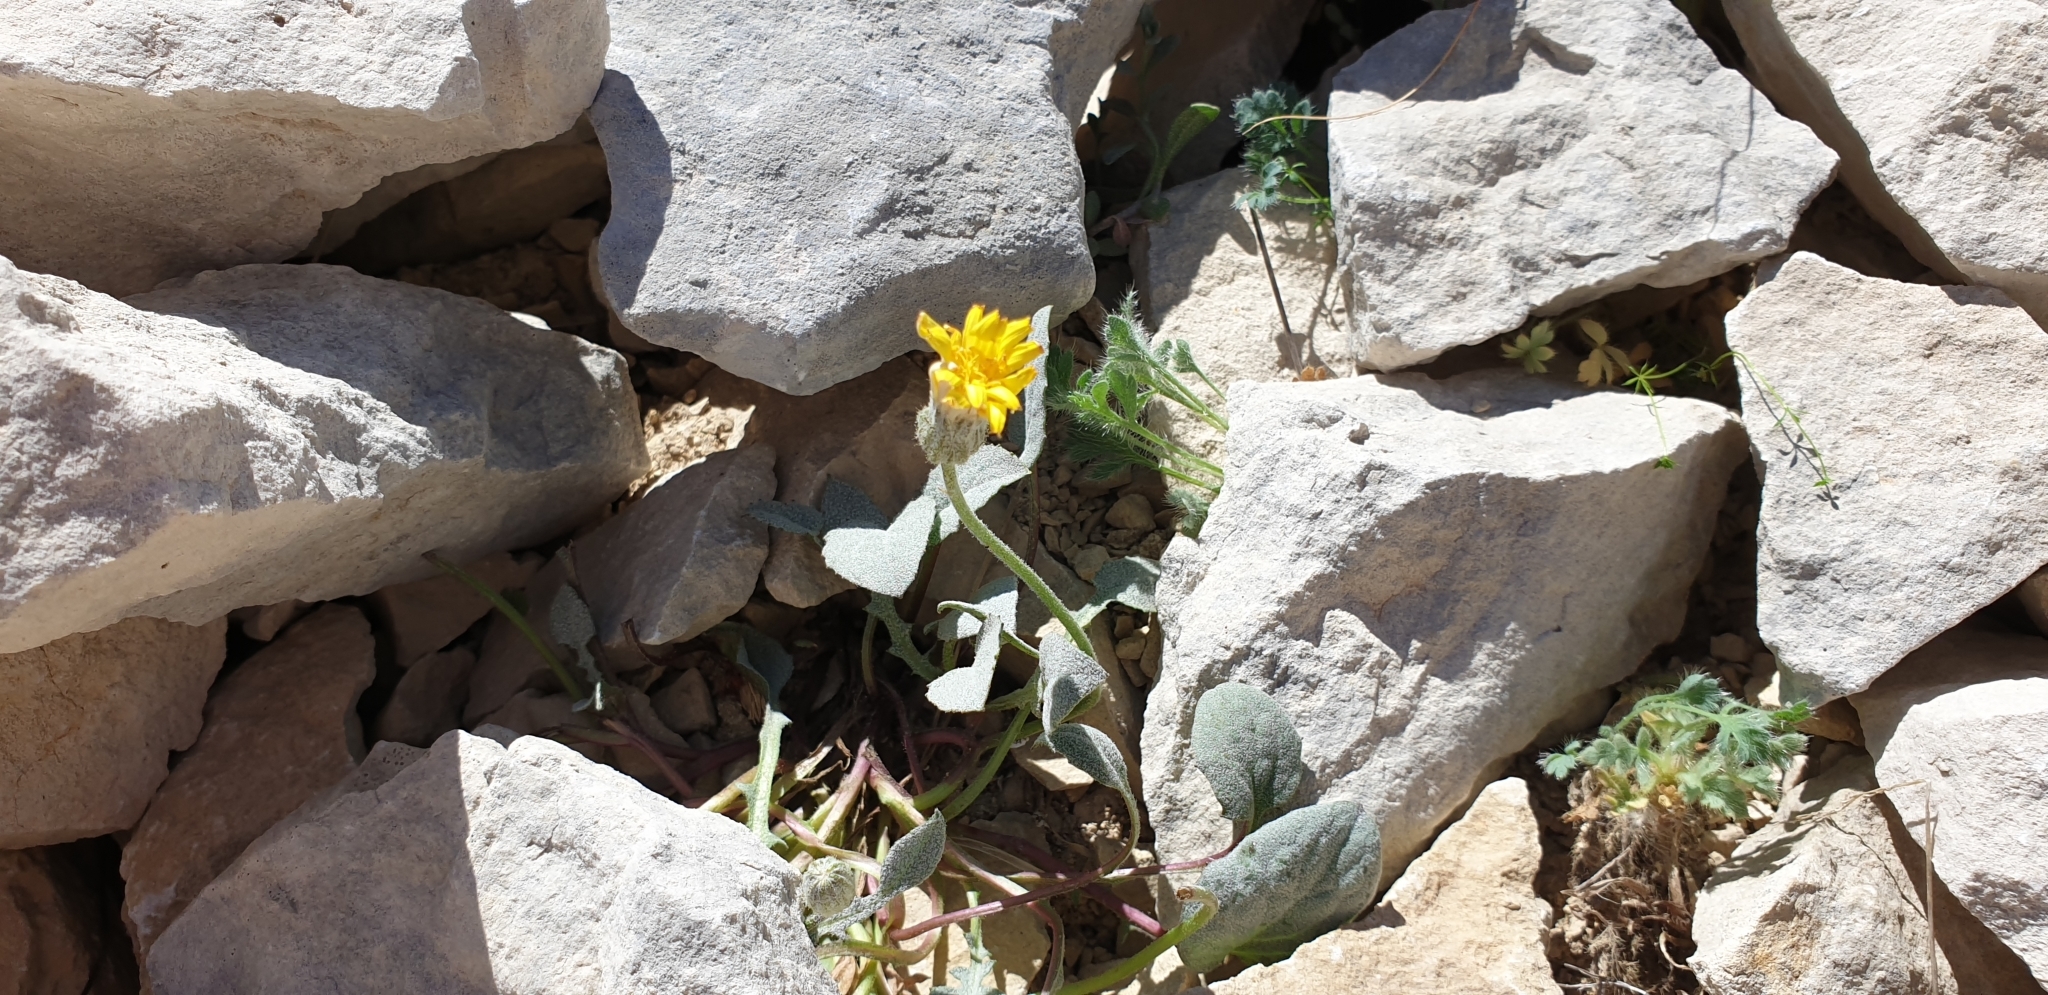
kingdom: Plantae
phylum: Tracheophyta
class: Magnoliopsida
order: Asterales
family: Asteraceae
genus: Crepis
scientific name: Crepis pygmaea
